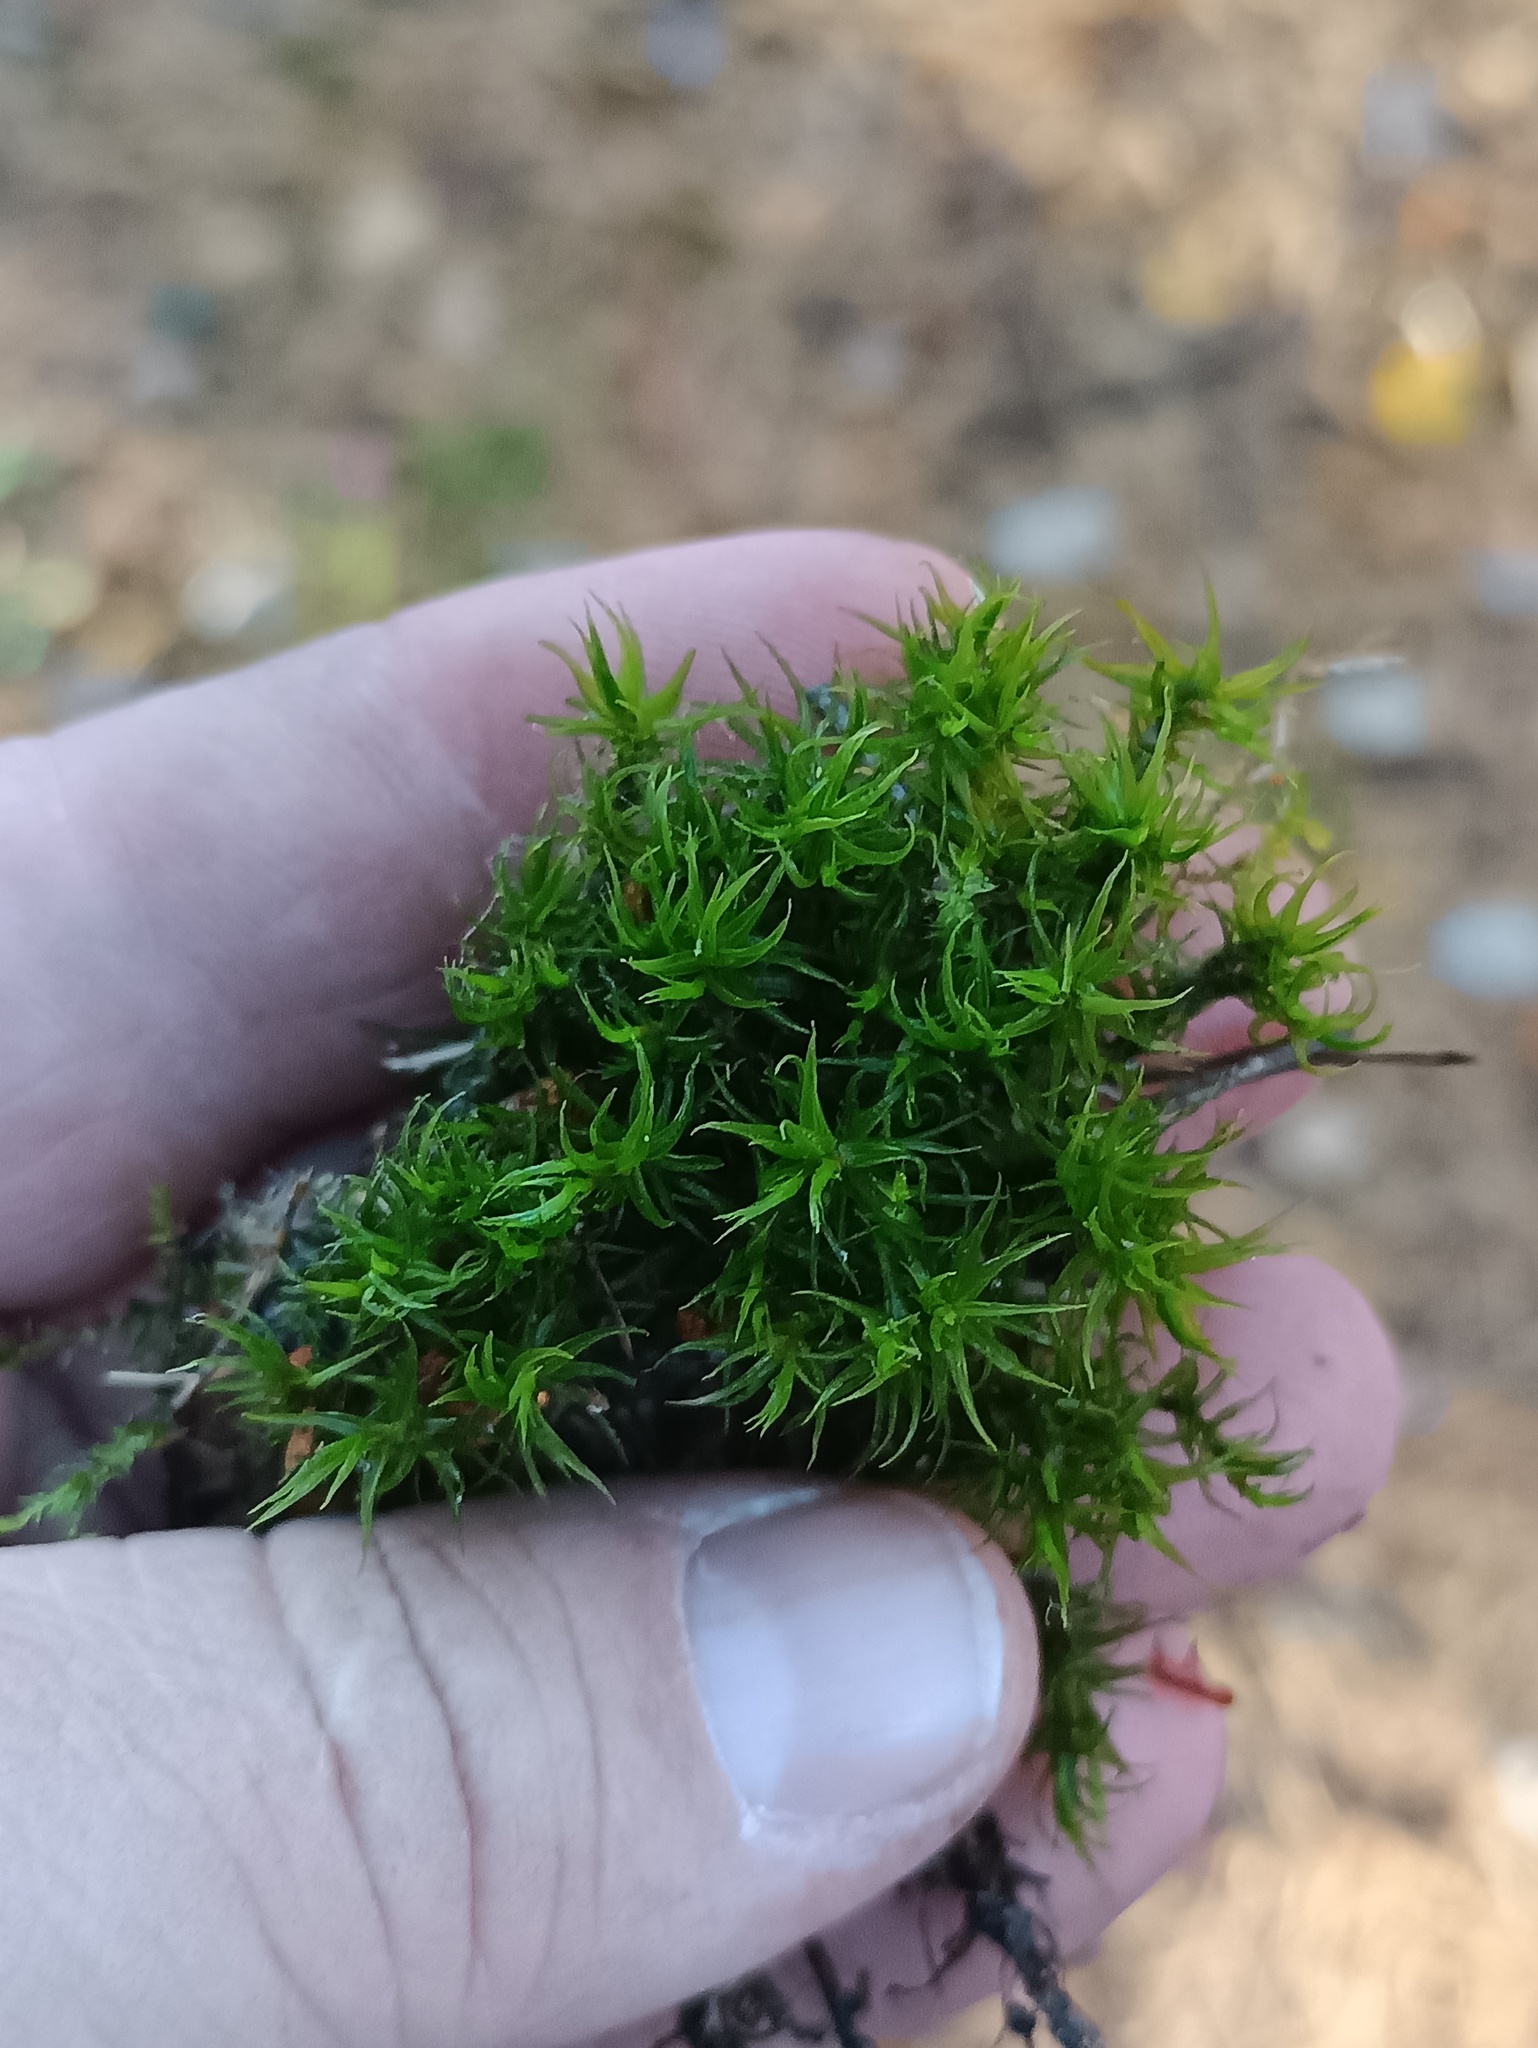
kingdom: Plantae
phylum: Bryophyta
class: Bryopsida
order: Dicranales
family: Dicranaceae
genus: Dicranum
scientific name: Dicranum polysetum
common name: Rugose fork-moss
